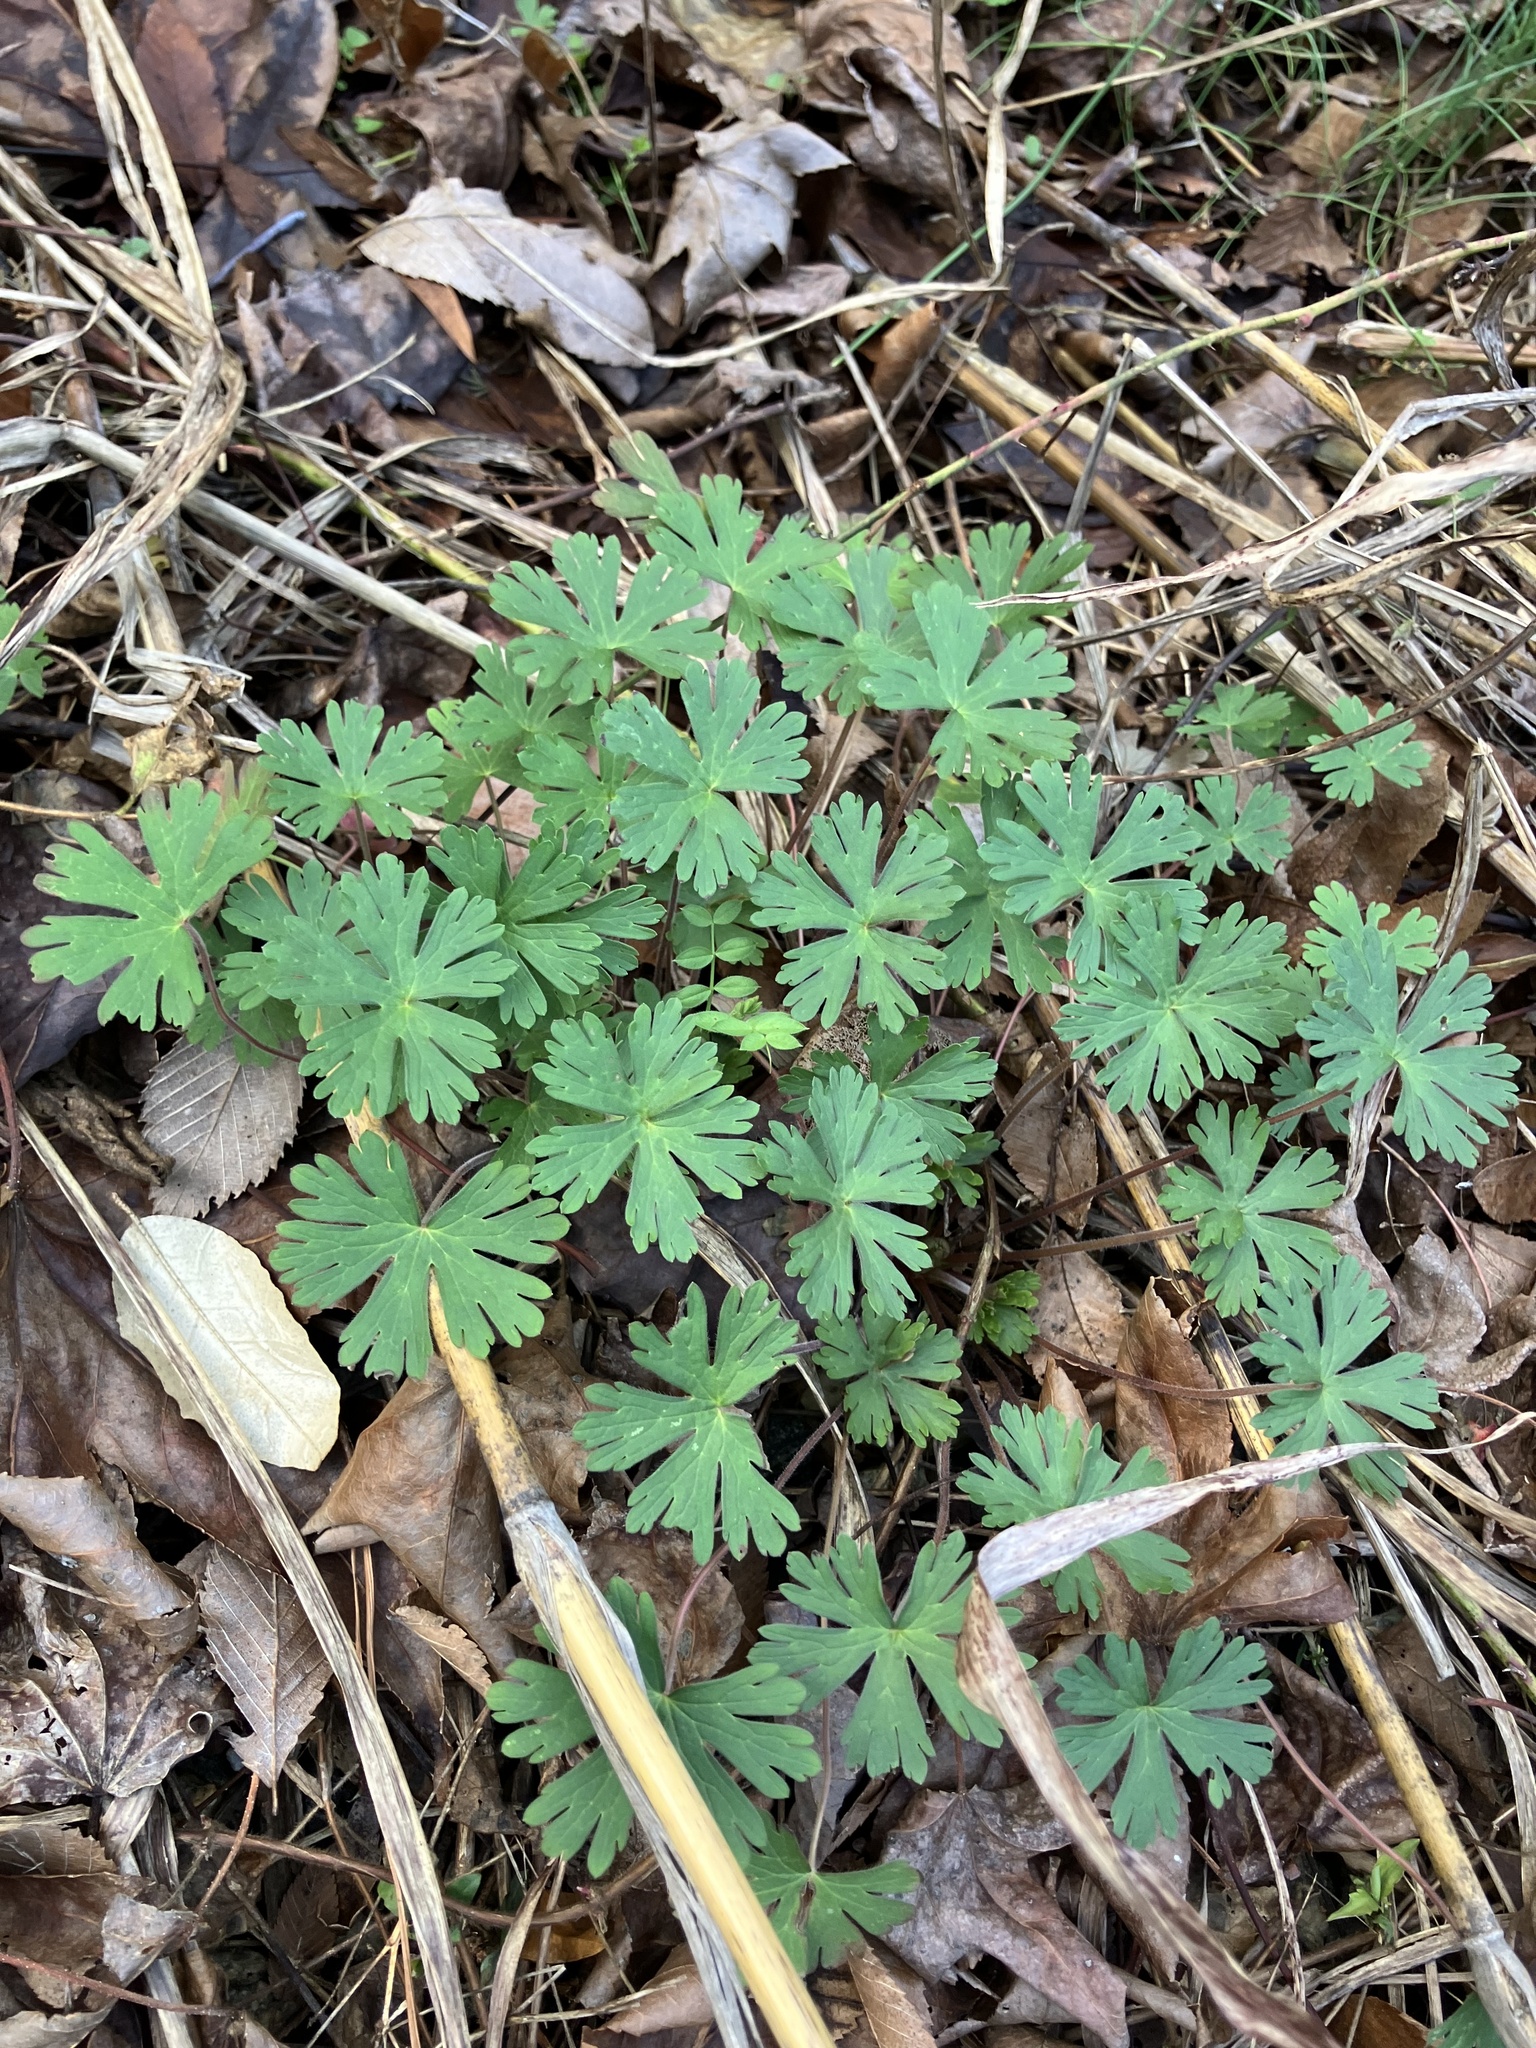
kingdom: Plantae
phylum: Tracheophyta
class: Magnoliopsida
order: Geraniales
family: Geraniaceae
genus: Geranium
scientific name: Geranium carolinianum
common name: Carolina crane's-bill
